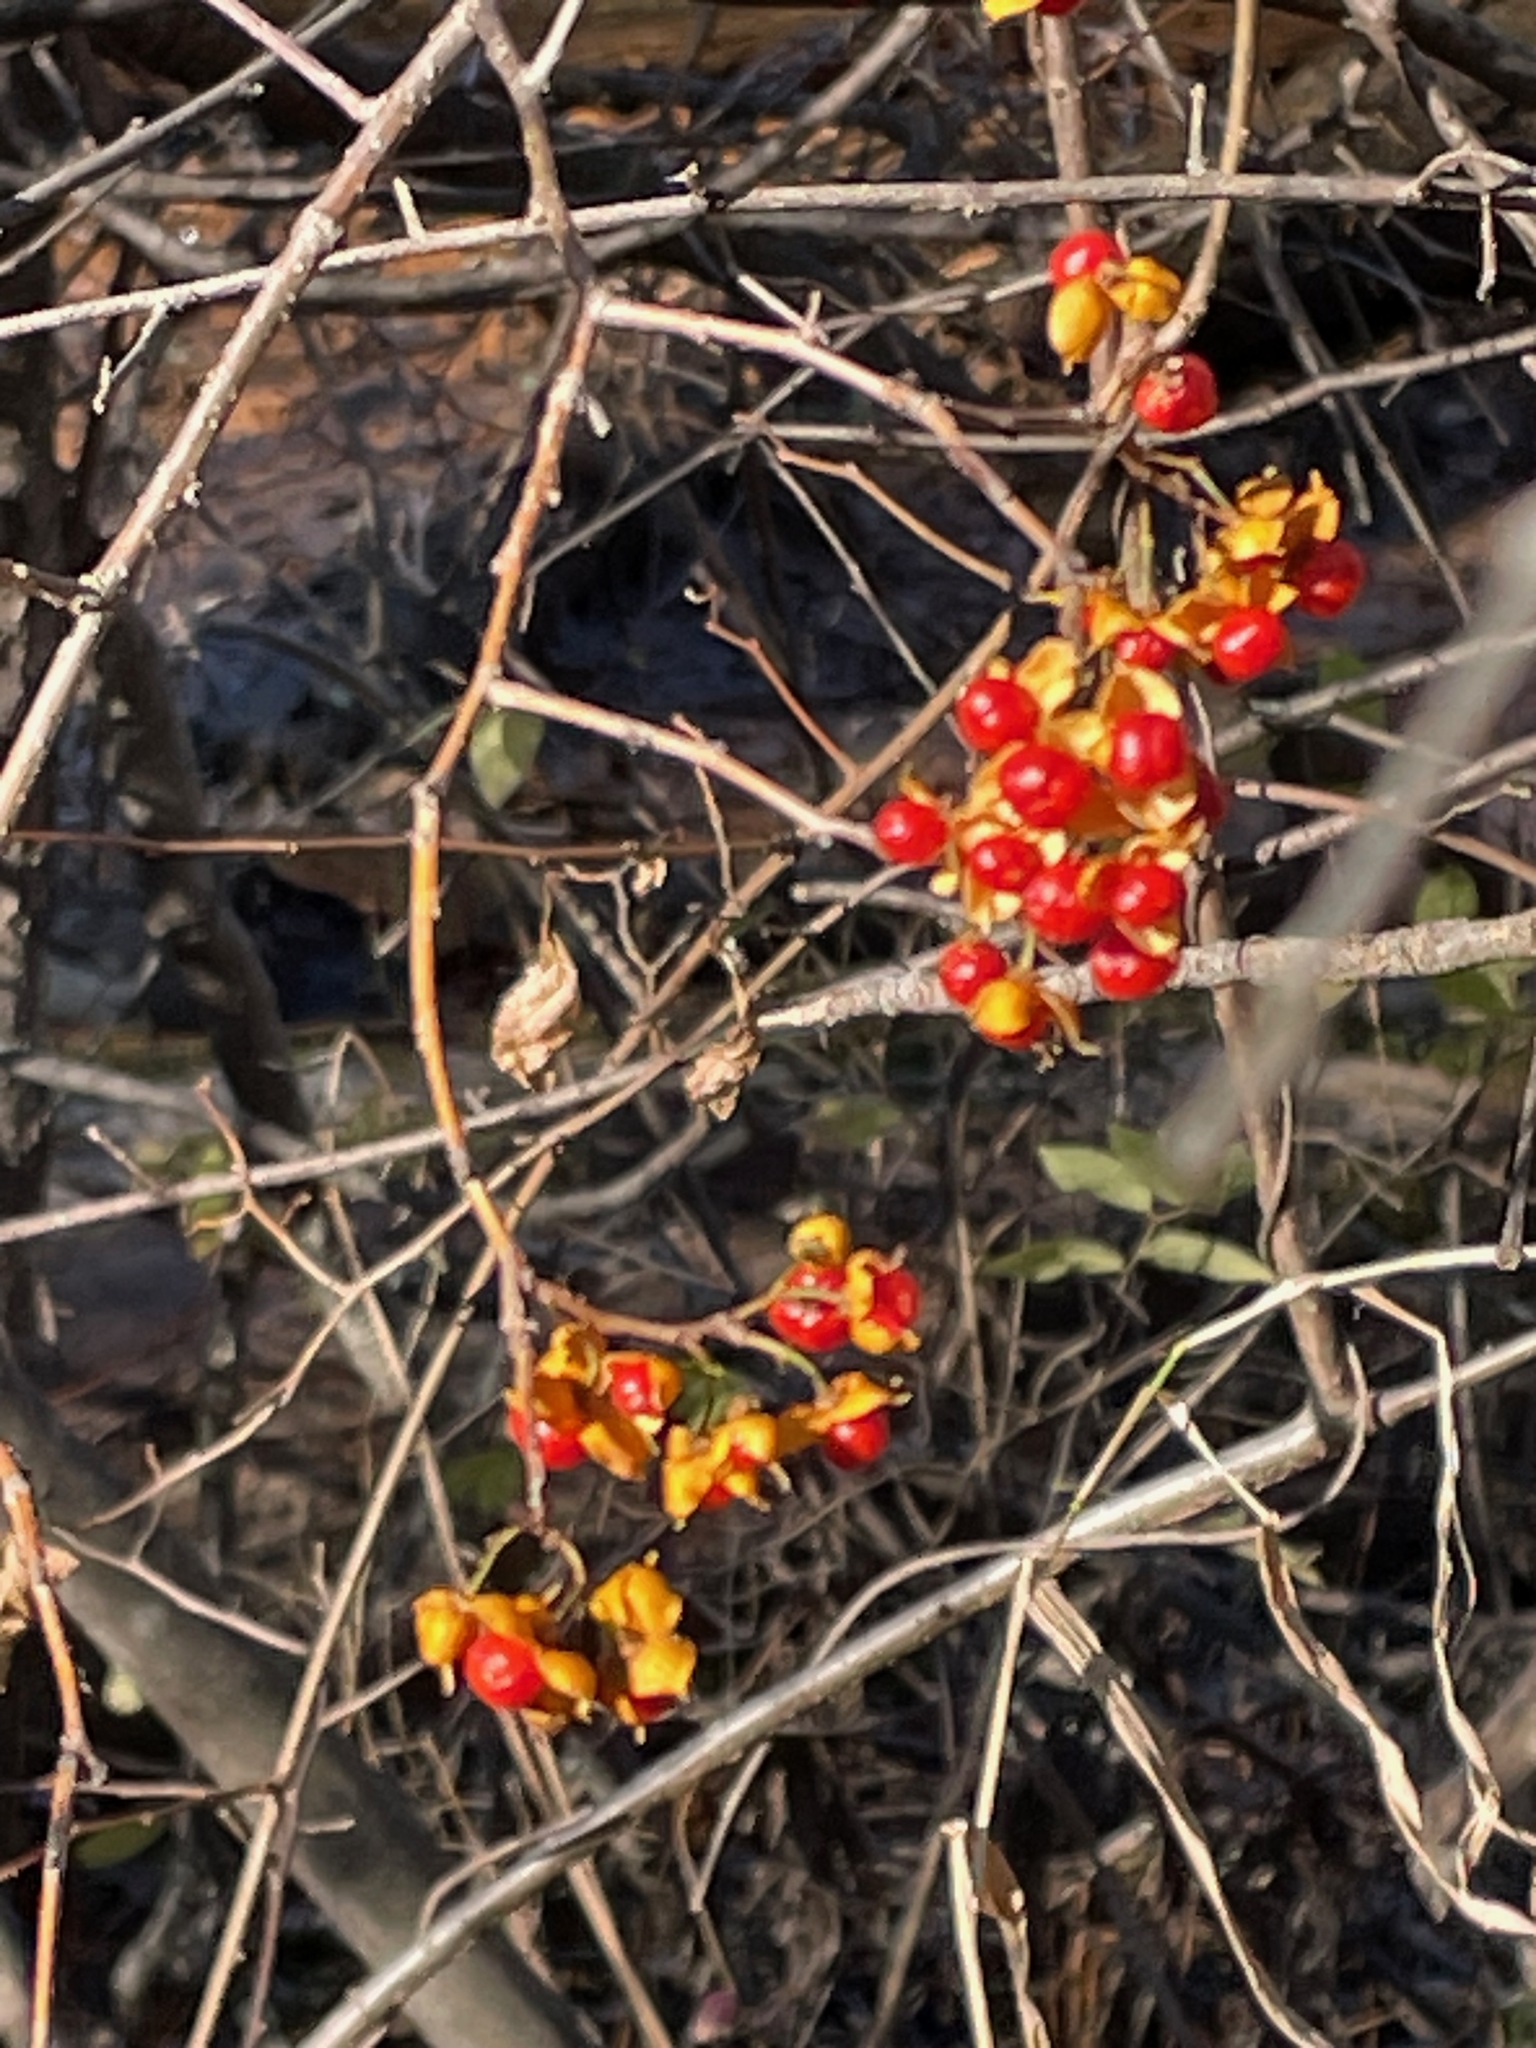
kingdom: Plantae
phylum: Tracheophyta
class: Magnoliopsida
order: Celastrales
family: Celastraceae
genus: Celastrus
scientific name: Celastrus orbiculatus
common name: Oriental bittersweet
